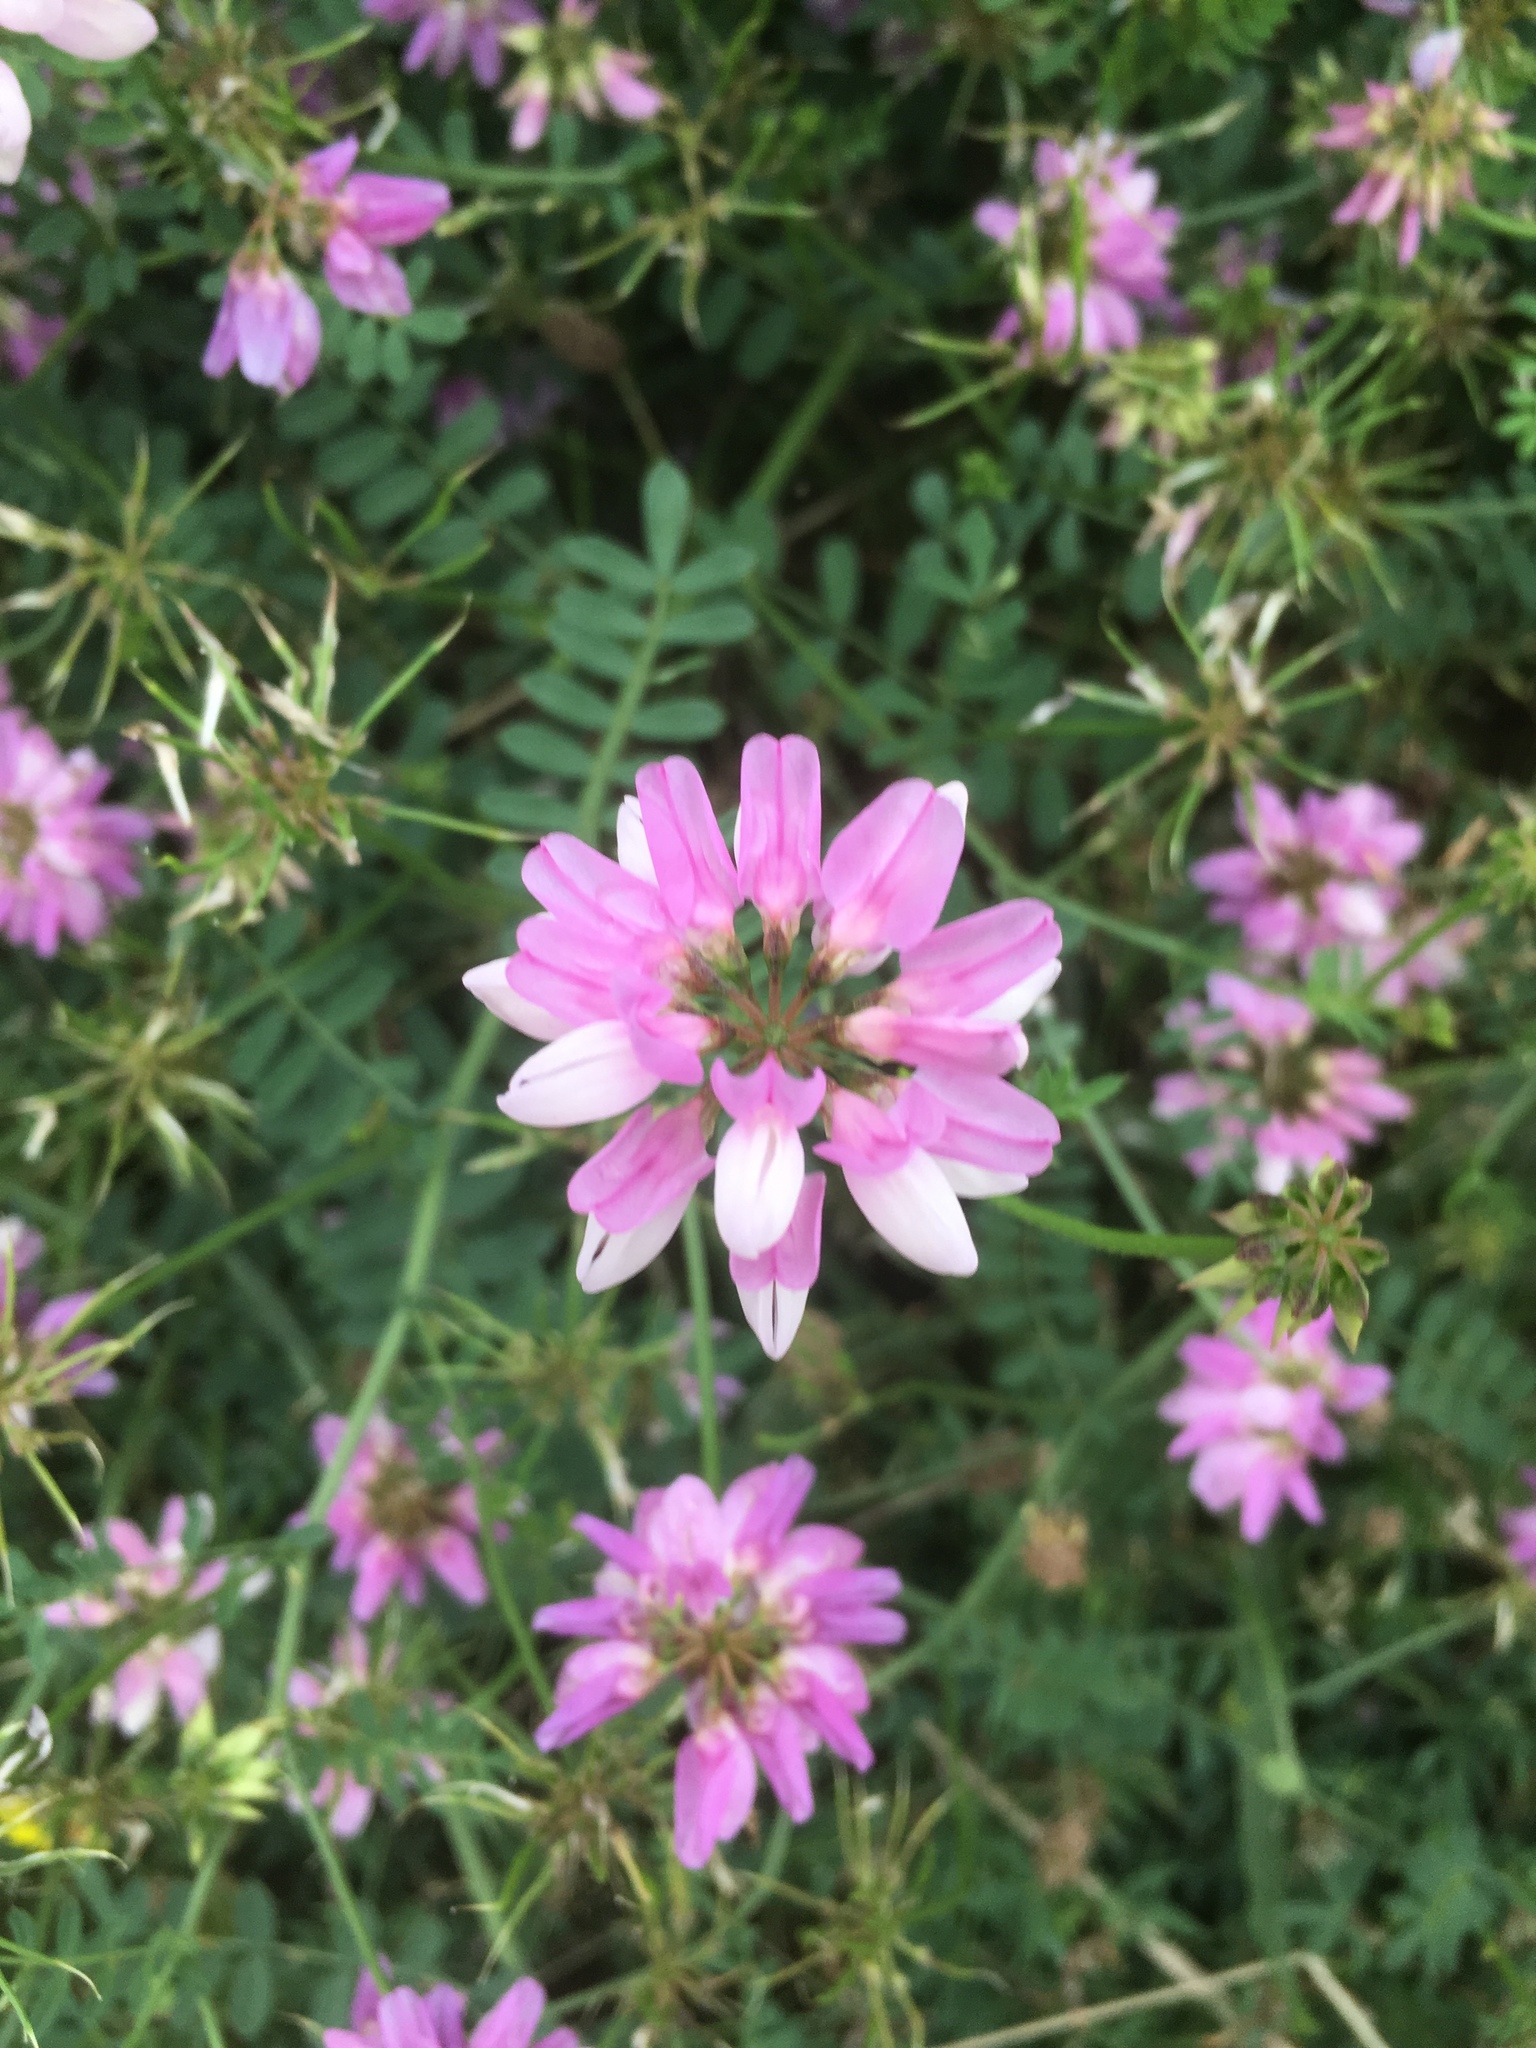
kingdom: Plantae
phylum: Tracheophyta
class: Magnoliopsida
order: Fabales
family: Fabaceae
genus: Coronilla
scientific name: Coronilla varia
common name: Crownvetch
